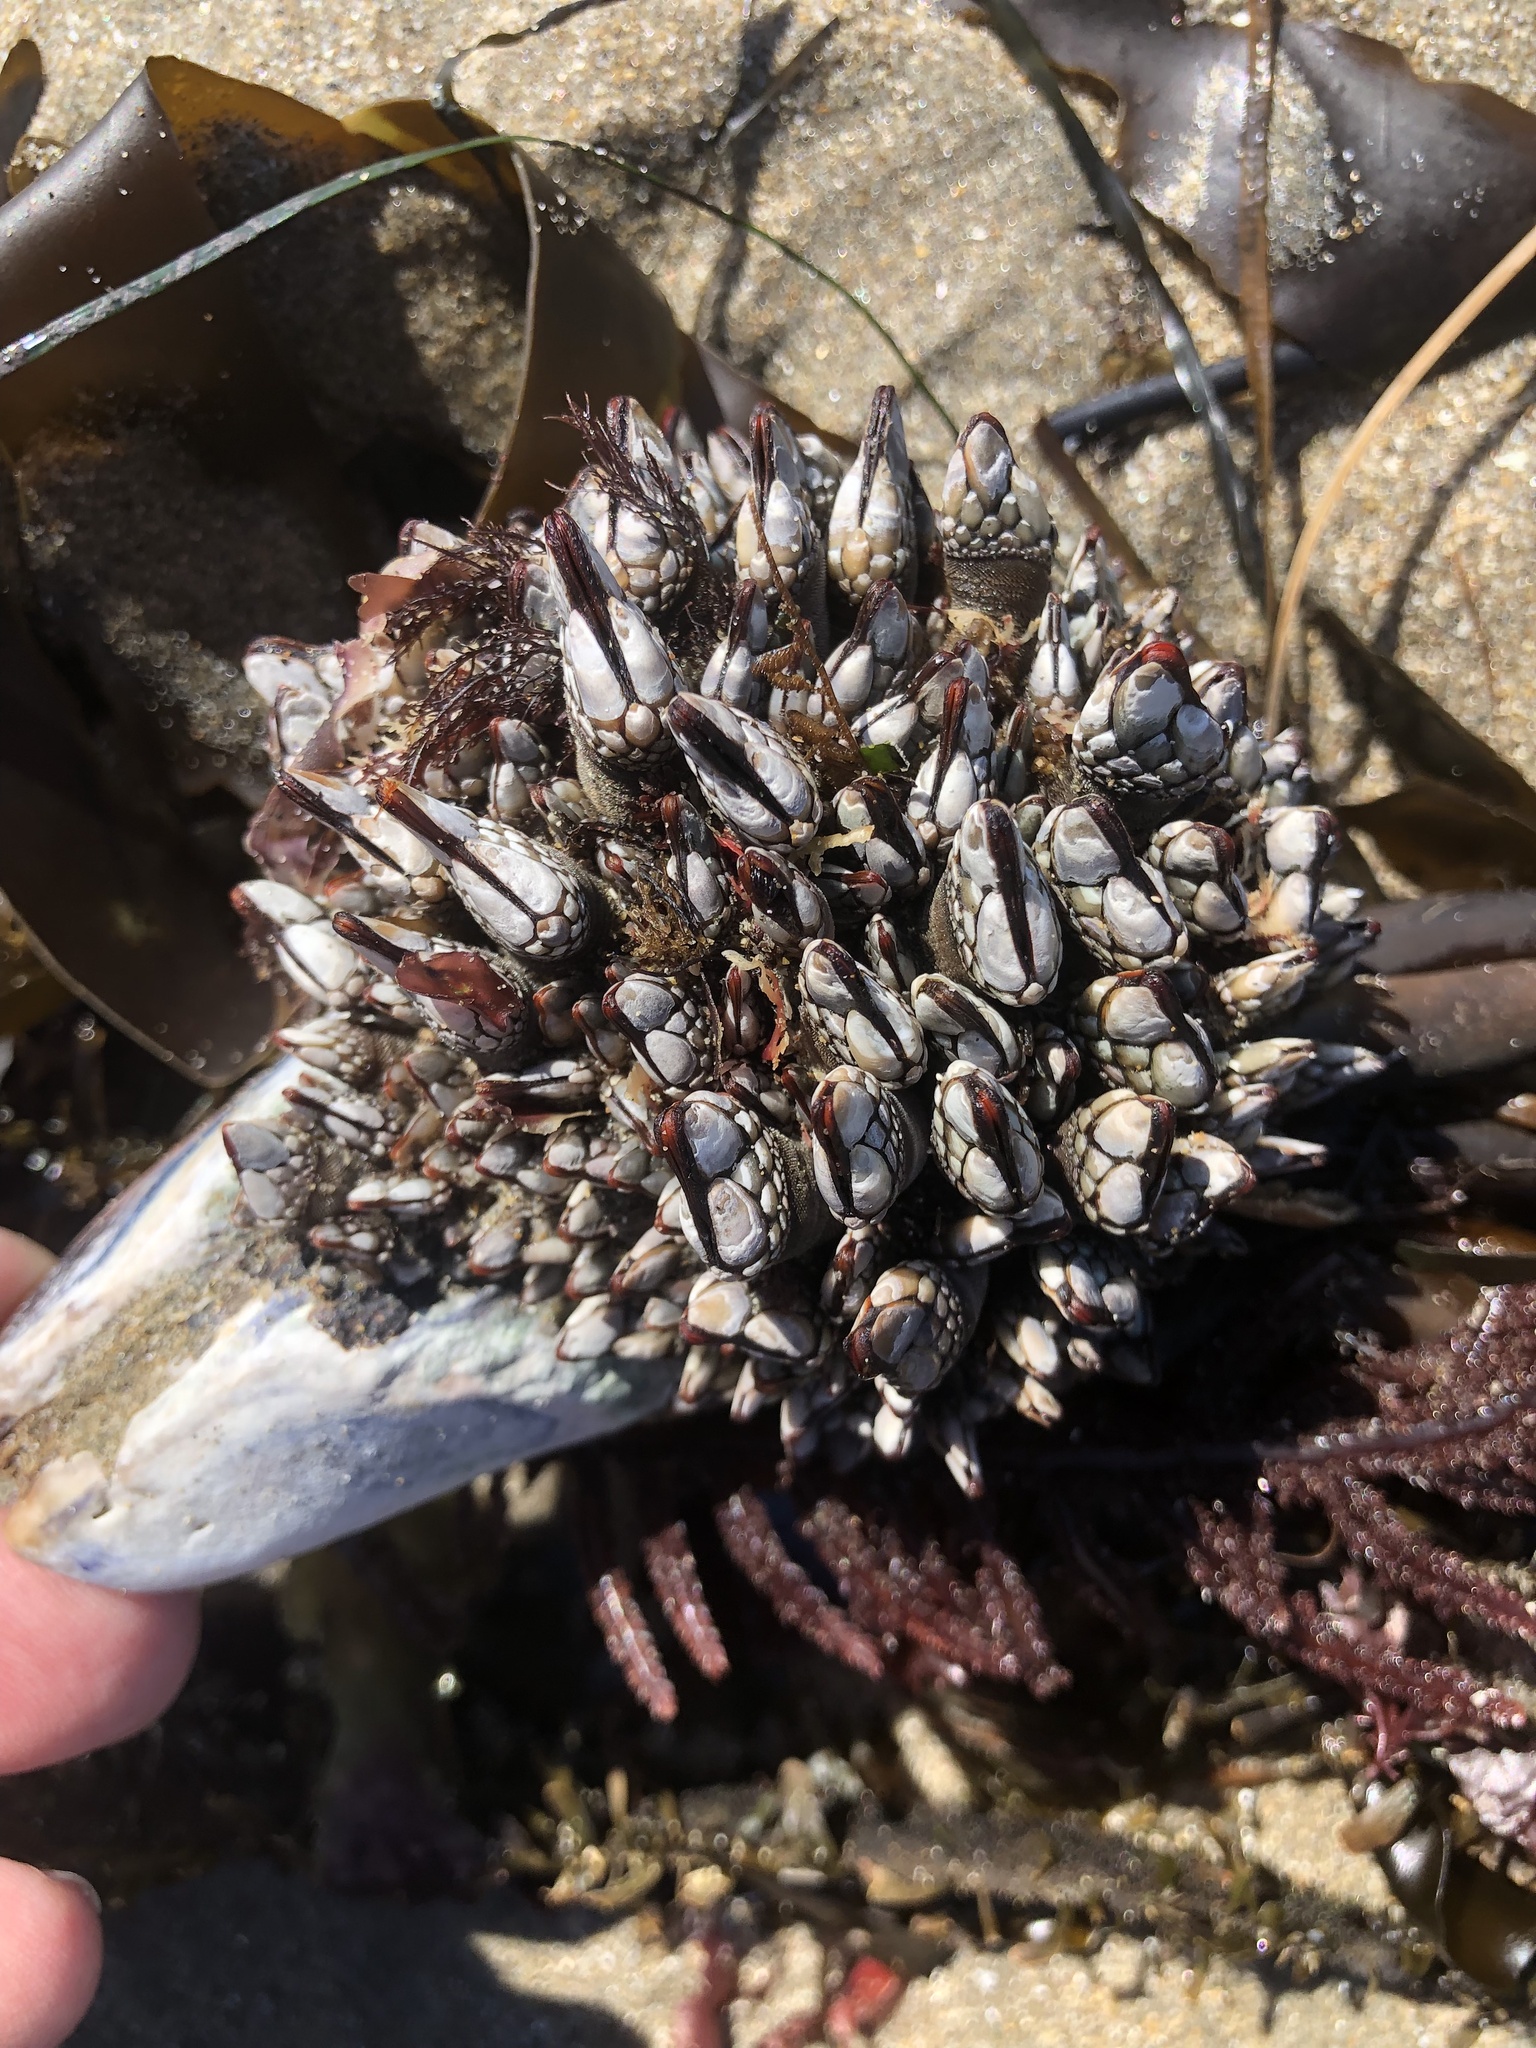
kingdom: Animalia
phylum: Arthropoda
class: Maxillopoda
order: Pedunculata
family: Pollicipedidae
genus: Pollicipes
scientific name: Pollicipes polymerus
